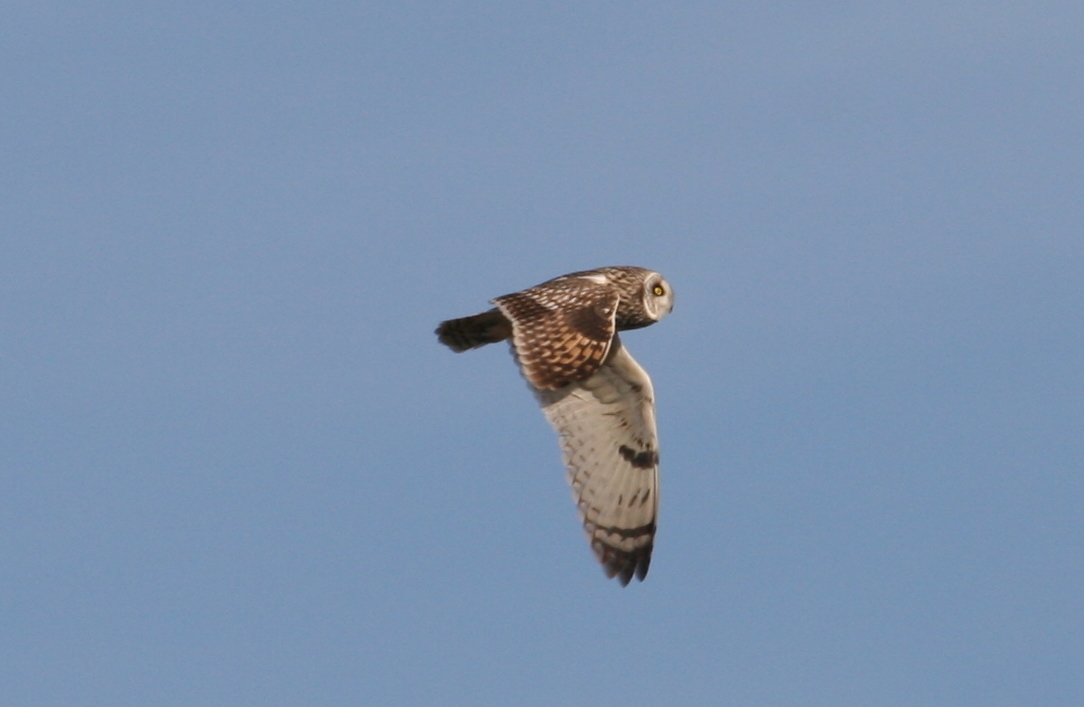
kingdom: Animalia
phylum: Chordata
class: Aves
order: Strigiformes
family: Strigidae
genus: Asio
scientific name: Asio flammeus
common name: Short-eared owl
